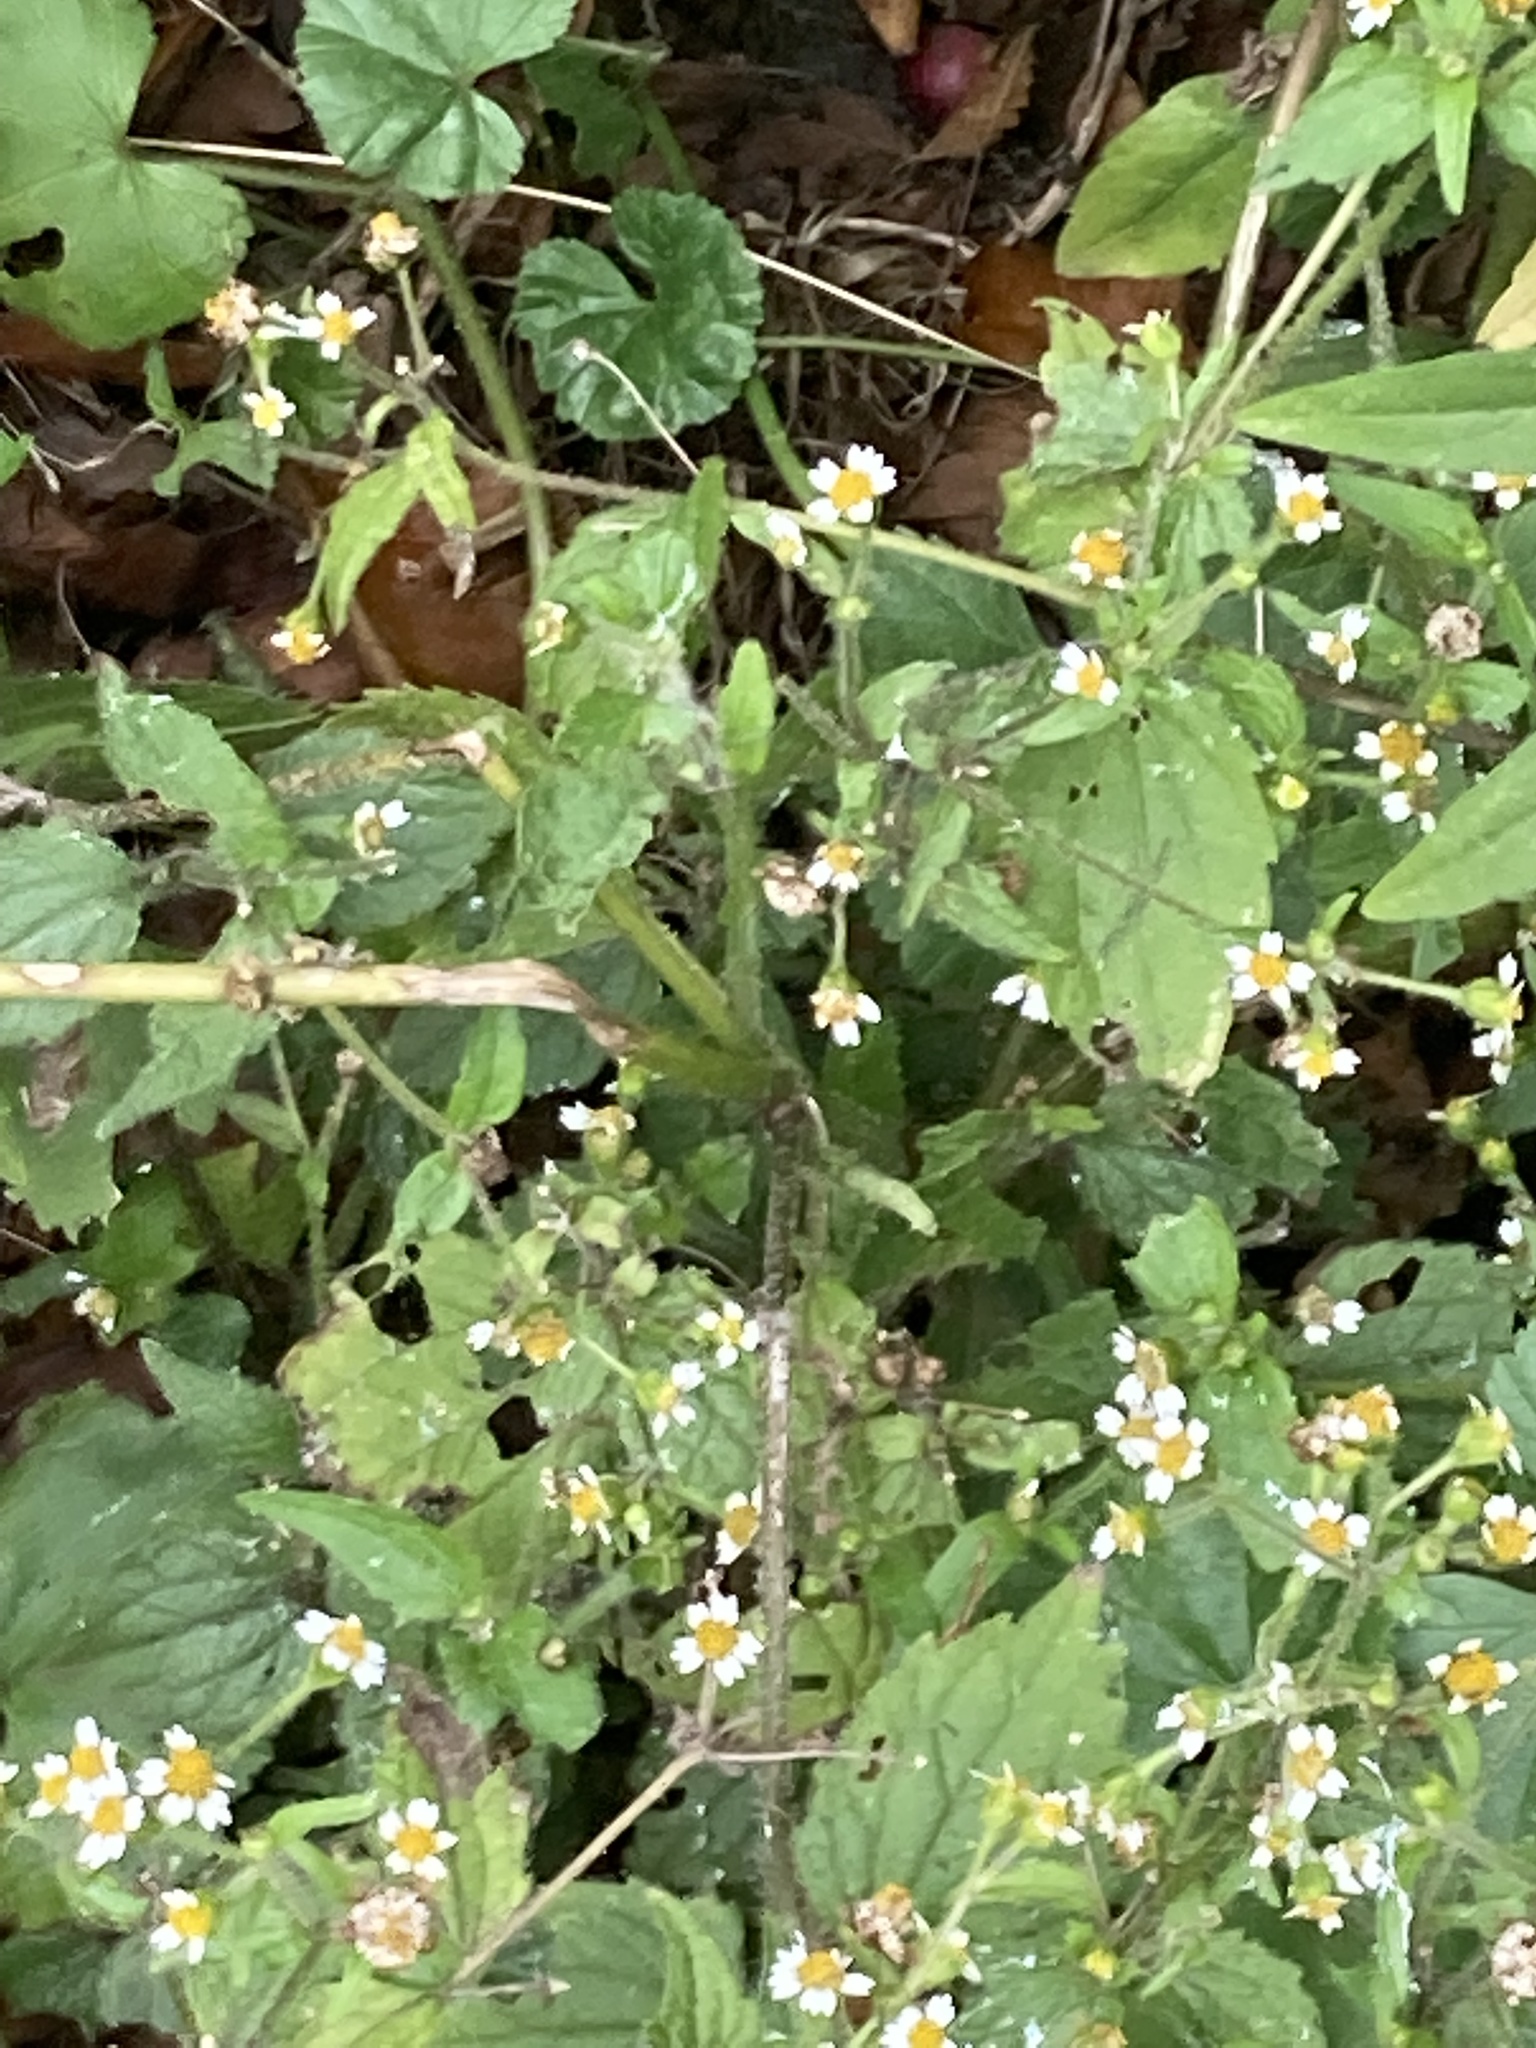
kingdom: Plantae
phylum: Tracheophyta
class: Magnoliopsida
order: Asterales
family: Asteraceae
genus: Galinsoga
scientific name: Galinsoga quadriradiata
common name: Shaggy soldier
